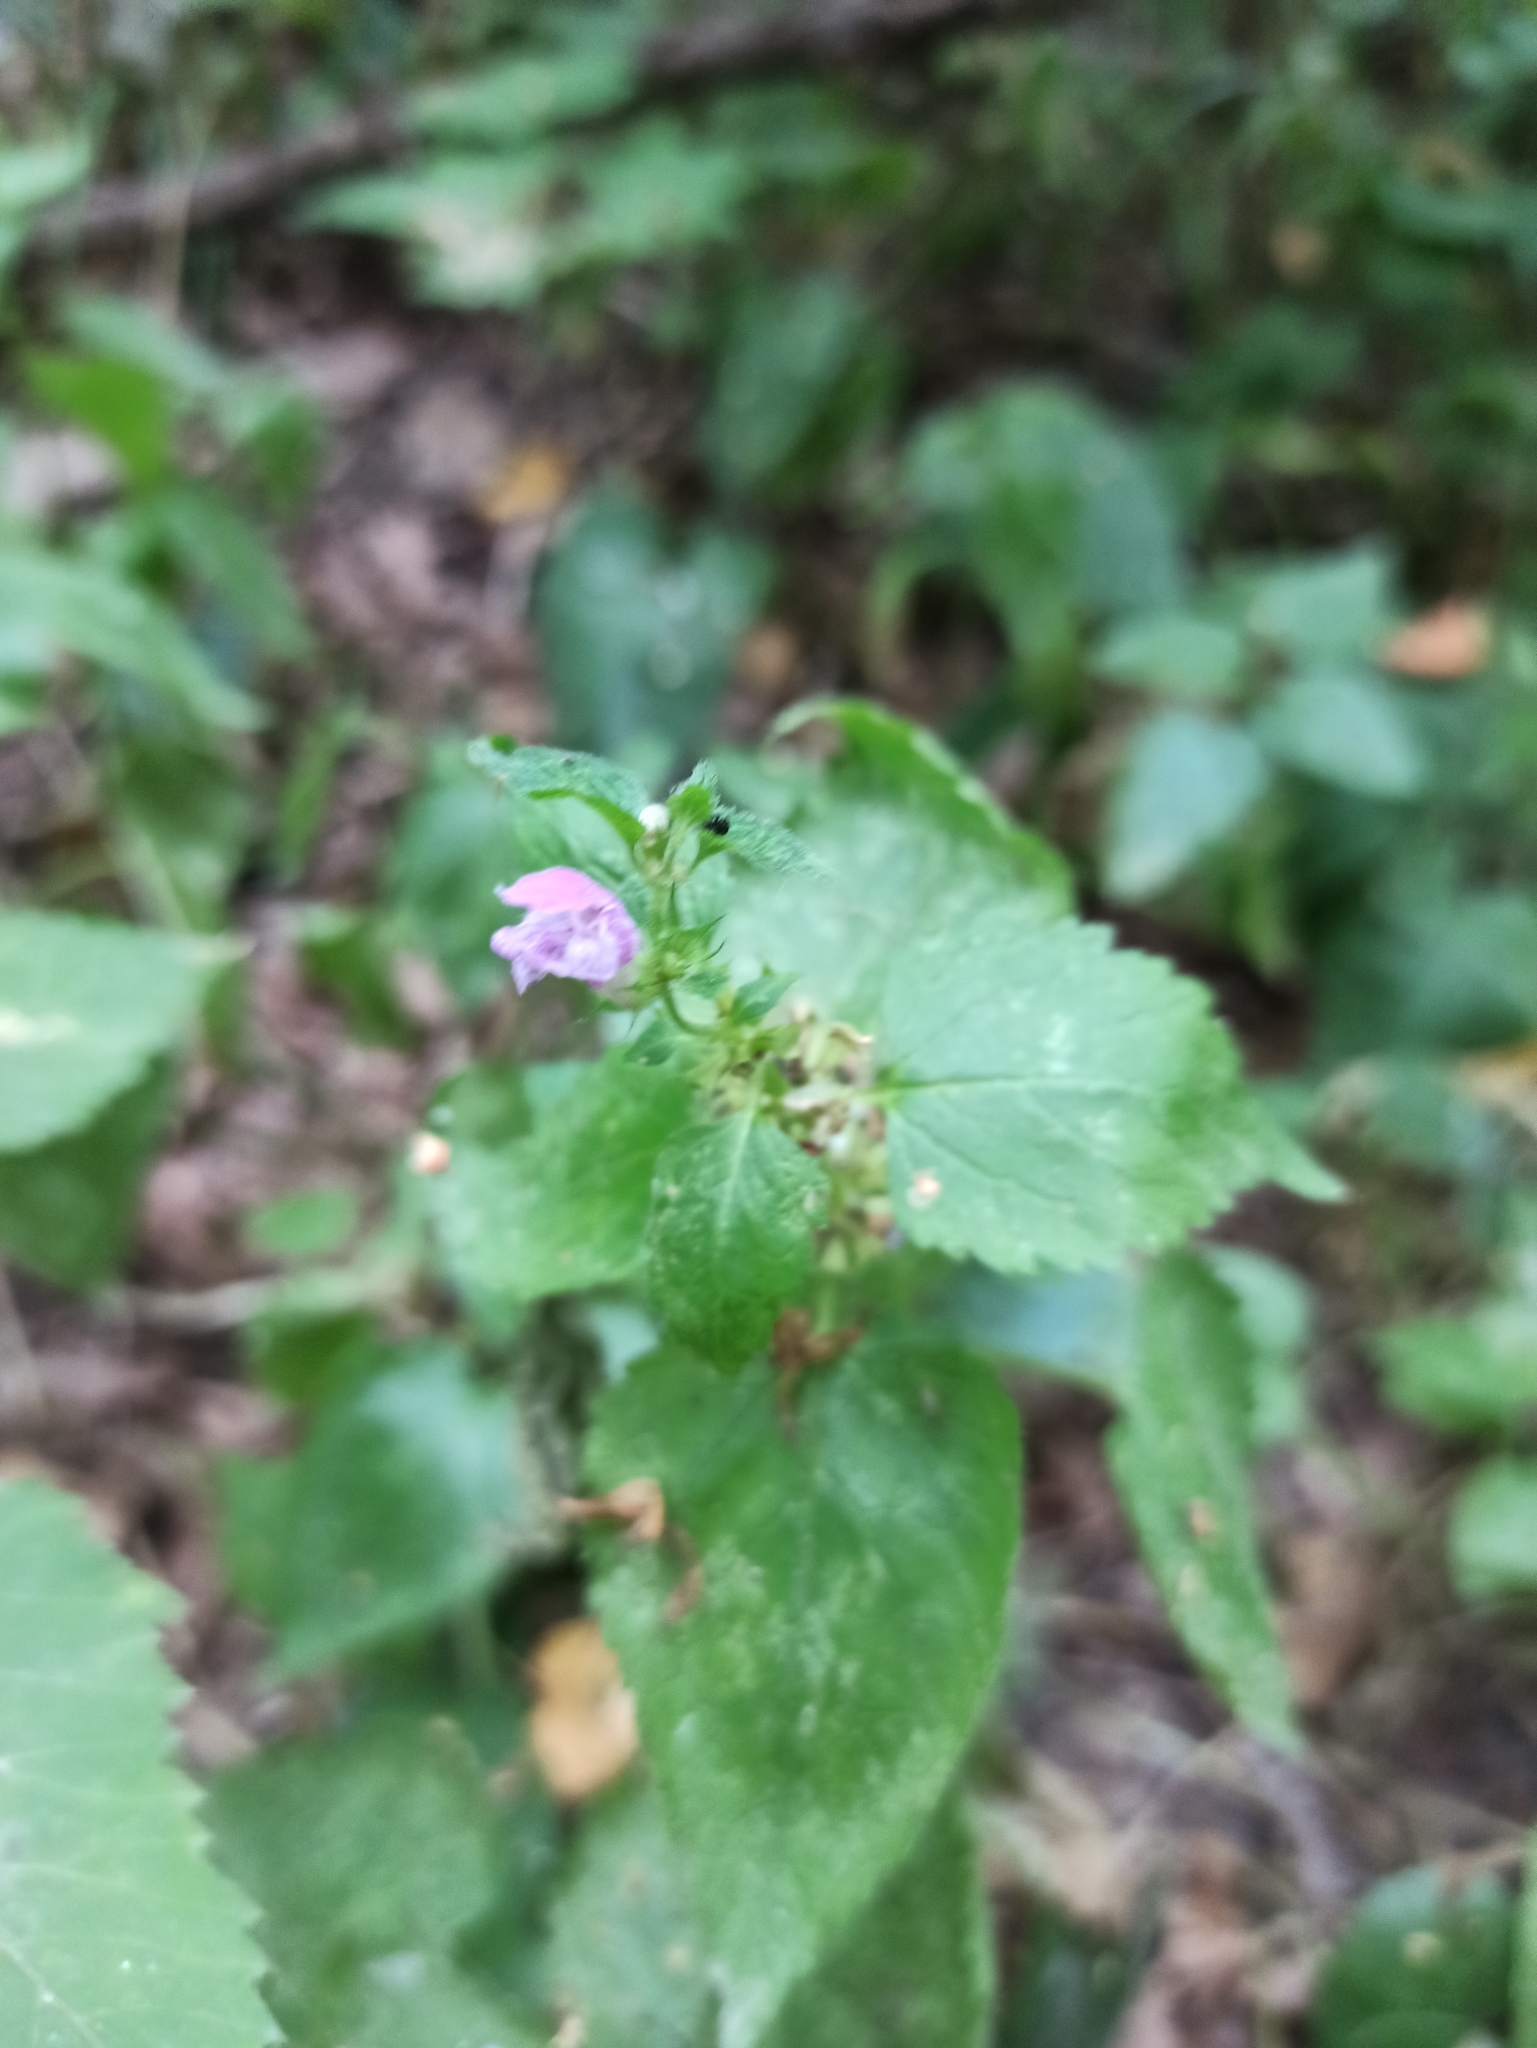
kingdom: Plantae
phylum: Tracheophyta
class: Magnoliopsida
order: Lamiales
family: Lamiaceae
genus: Lamium
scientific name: Lamium maculatum
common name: Spotted dead-nettle
